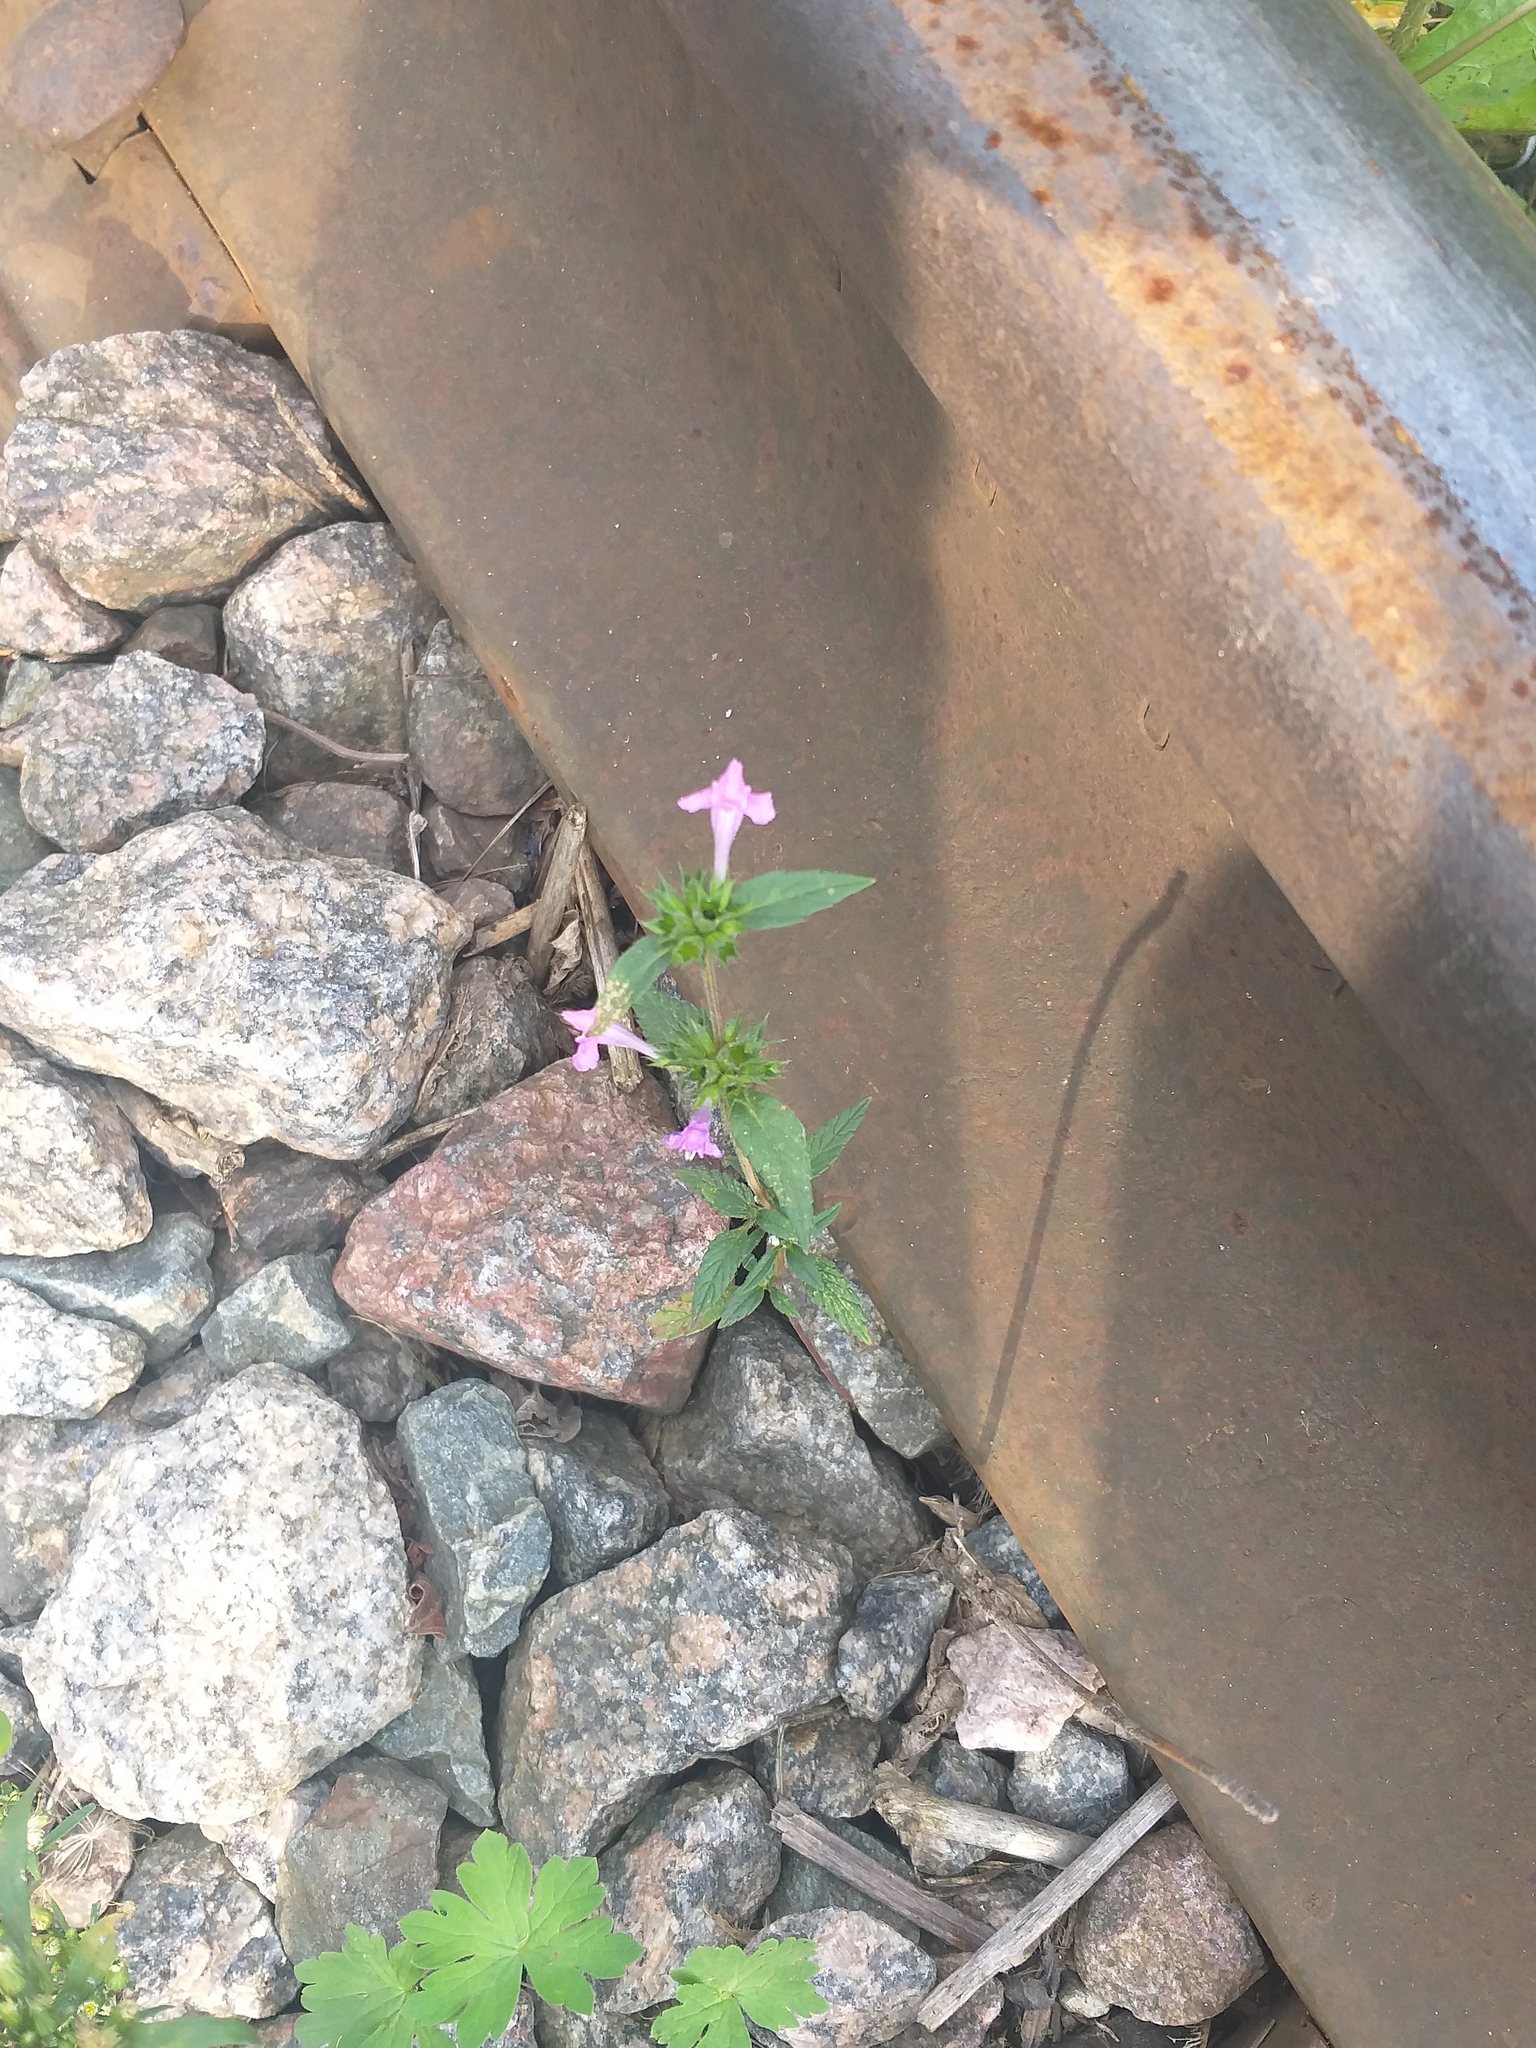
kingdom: Plantae
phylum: Tracheophyta
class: Magnoliopsida
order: Lamiales
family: Lamiaceae
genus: Galeopsis
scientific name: Galeopsis ladanum
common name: Broad-leaved hemp-nettle
